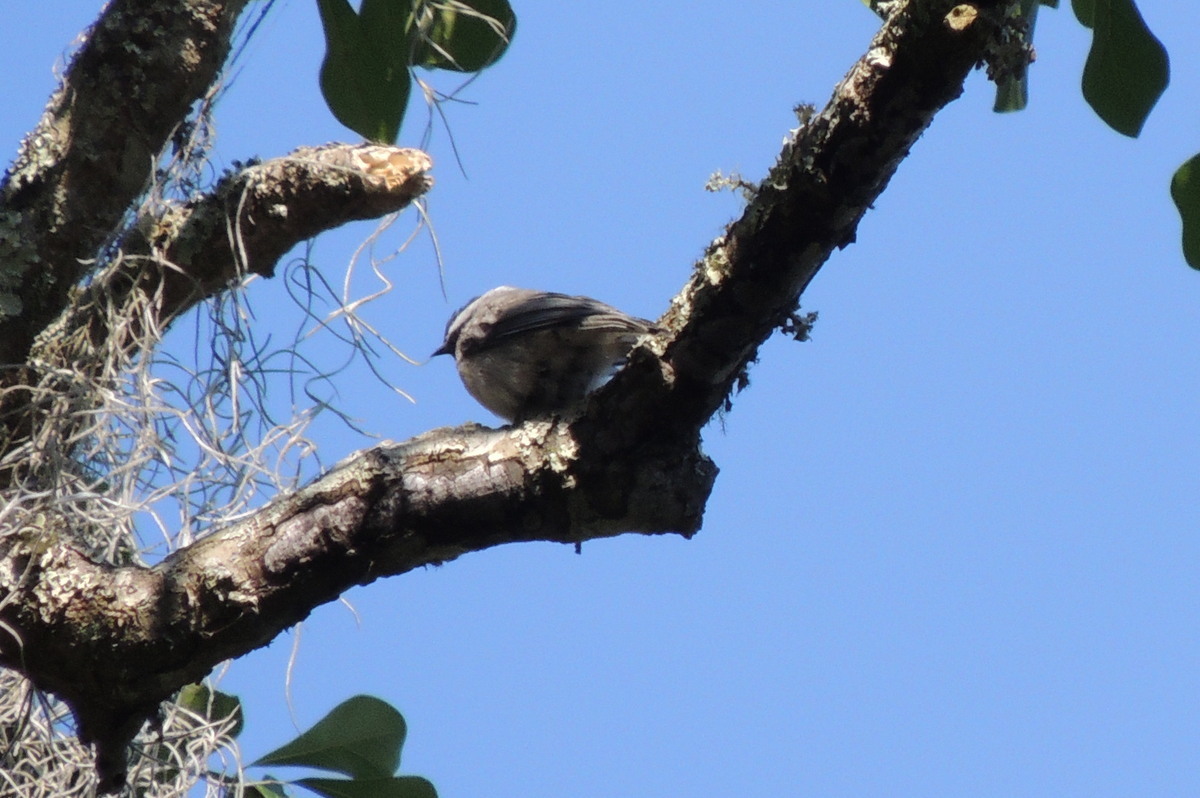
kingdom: Animalia
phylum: Chordata
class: Aves
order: Passeriformes
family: Paridae
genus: Poecile
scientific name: Poecile carolinensis
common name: Carolina chickadee
